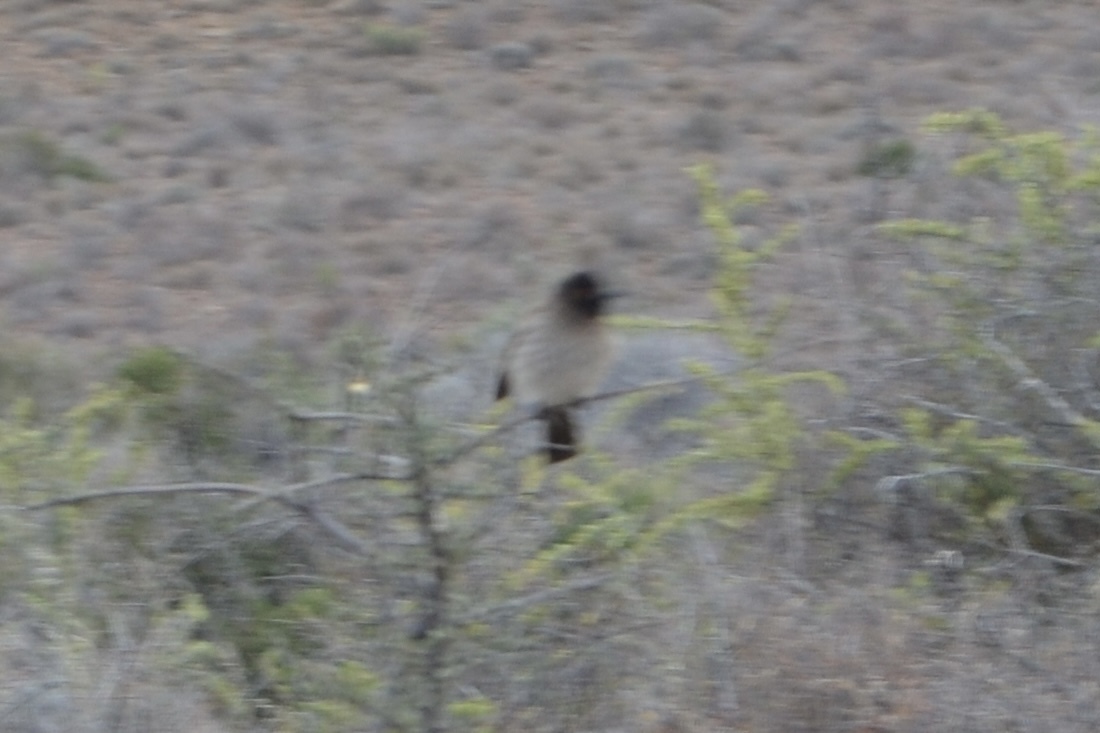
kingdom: Animalia
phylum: Chordata
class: Aves
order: Passeriformes
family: Pycnonotidae
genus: Pycnonotus
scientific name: Pycnonotus nigricans
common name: African red-eyed bulbul
